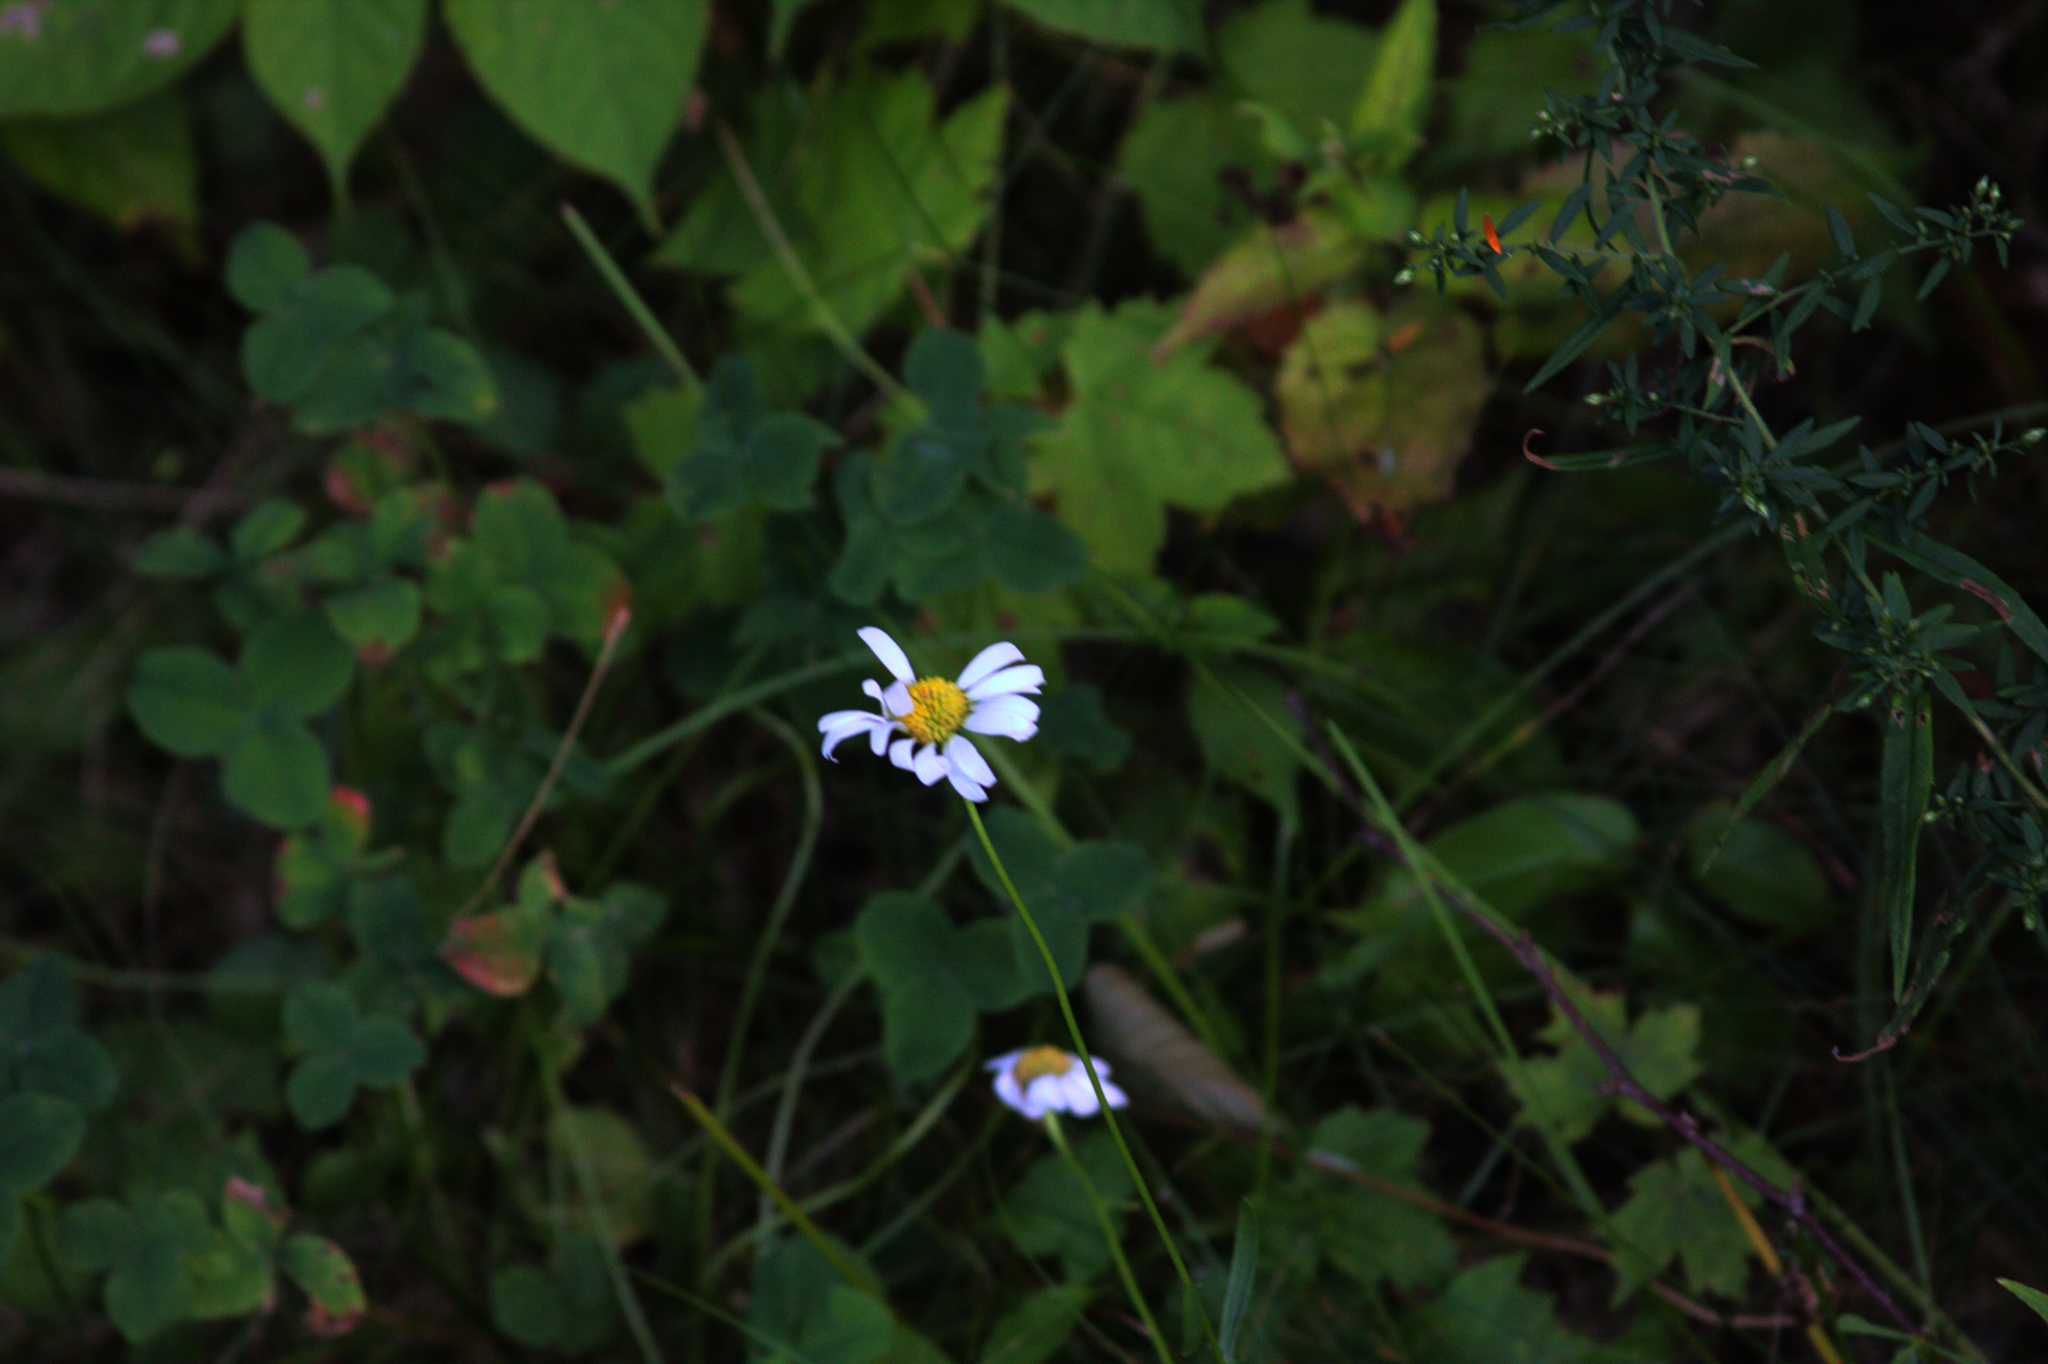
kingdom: Plantae
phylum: Tracheophyta
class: Magnoliopsida
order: Asterales
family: Asteraceae
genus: Leucanthemum
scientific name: Leucanthemum vulgare
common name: Oxeye daisy
